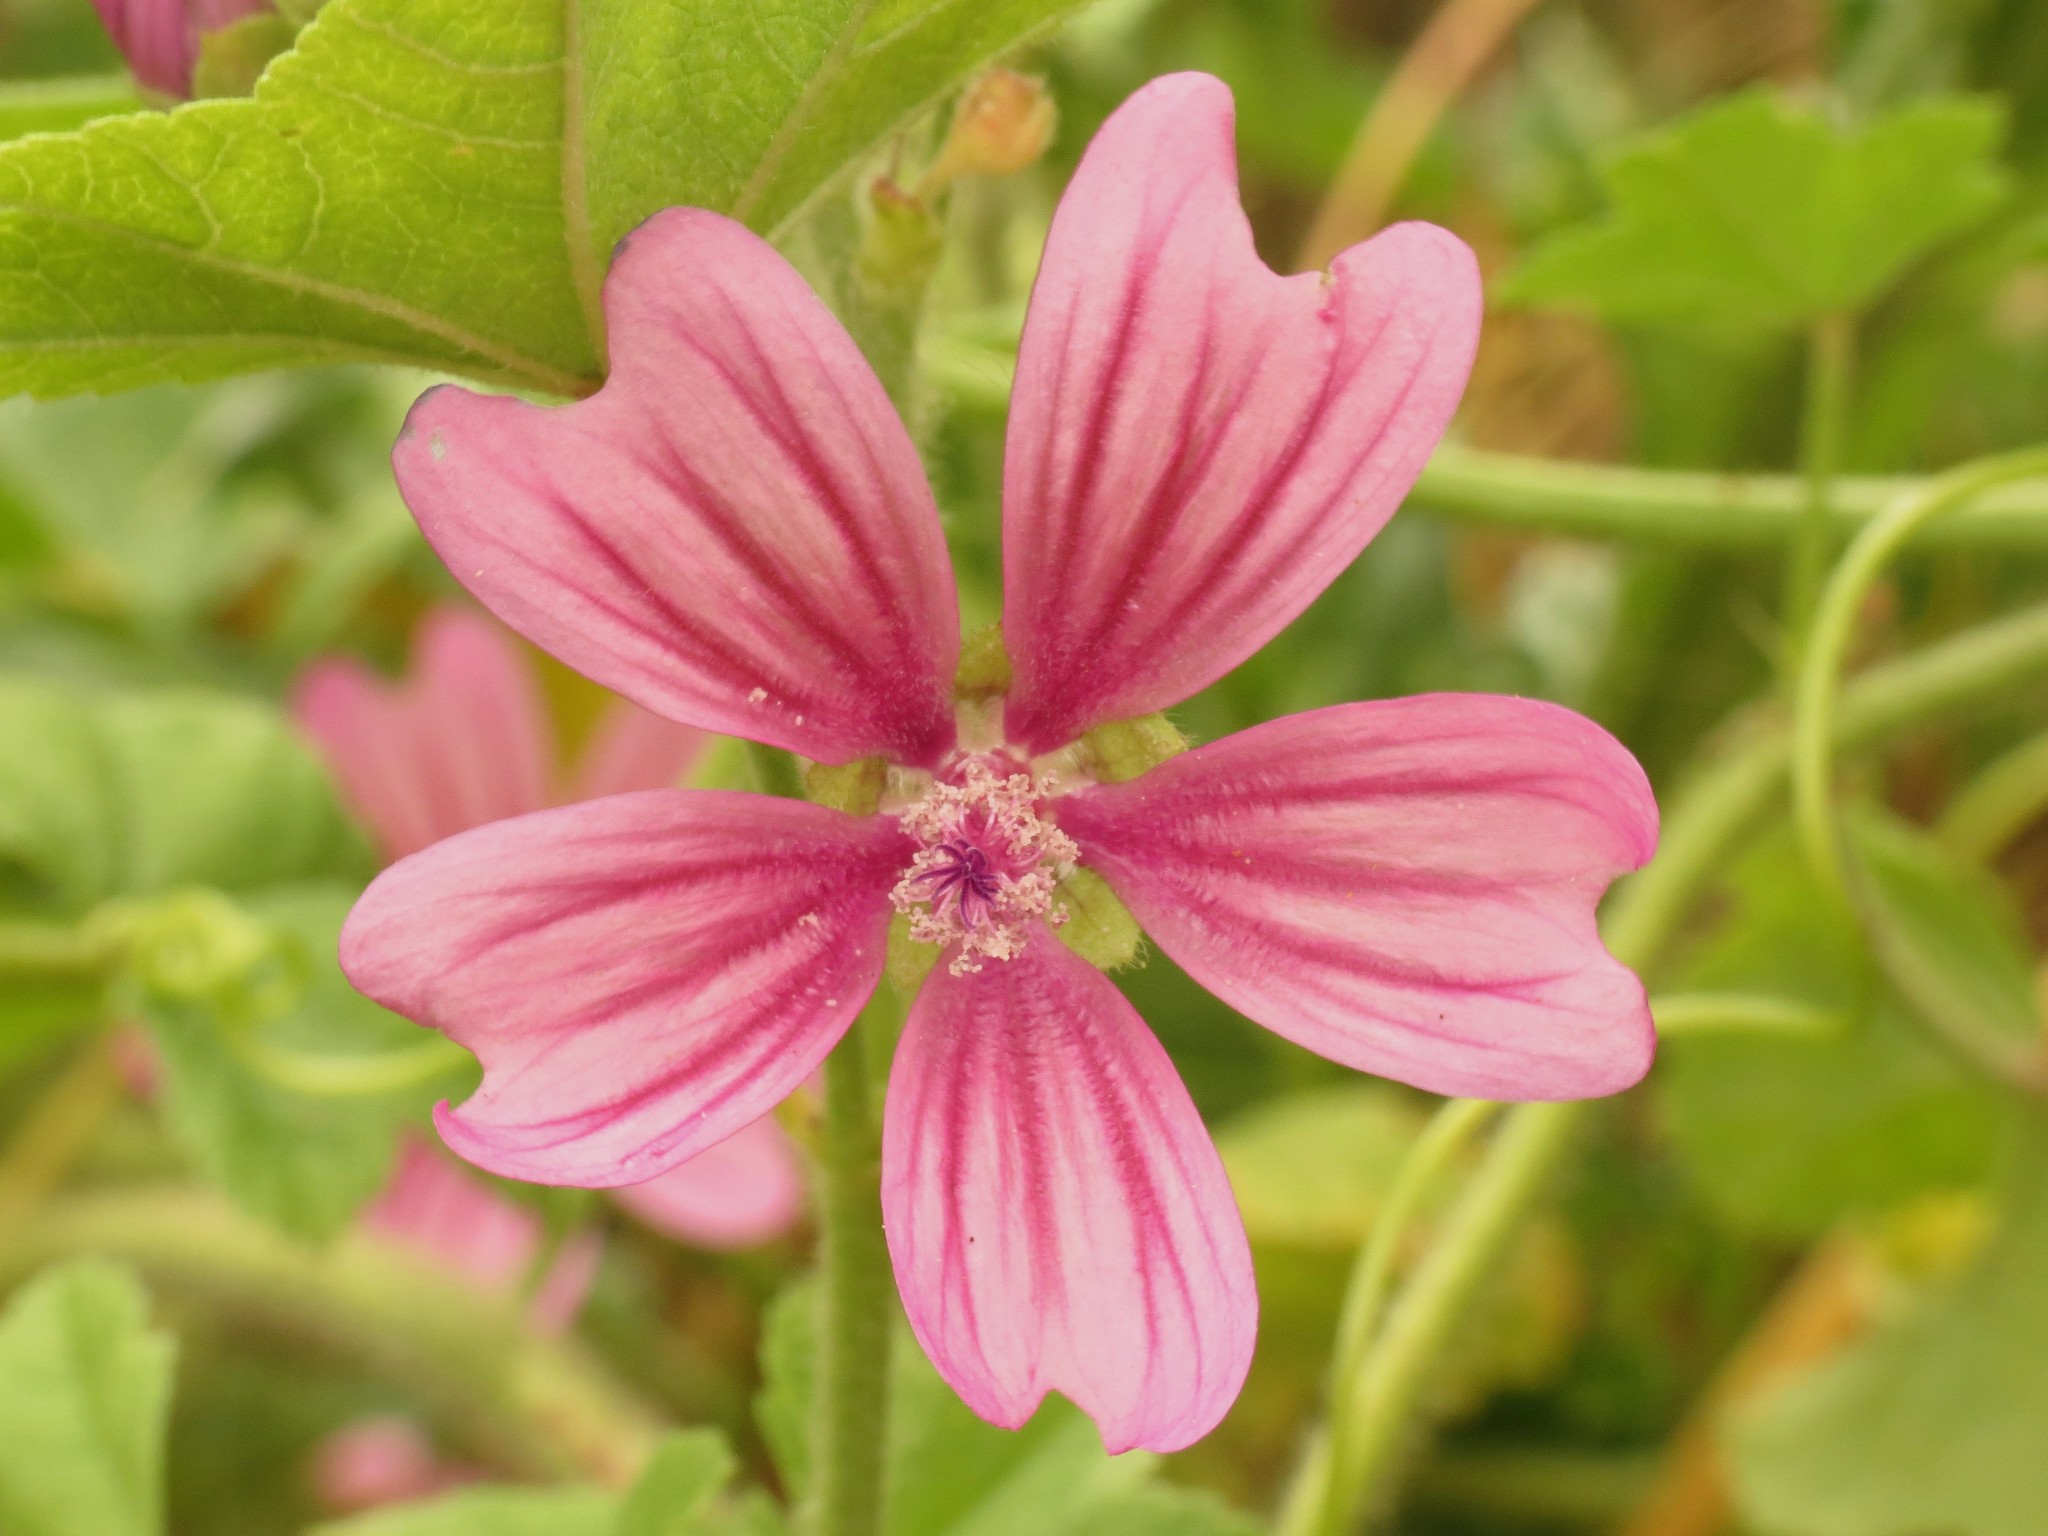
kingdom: Plantae
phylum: Tracheophyta
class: Magnoliopsida
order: Malvales
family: Malvaceae
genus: Malva
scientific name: Malva sylvestris
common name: Common mallow
